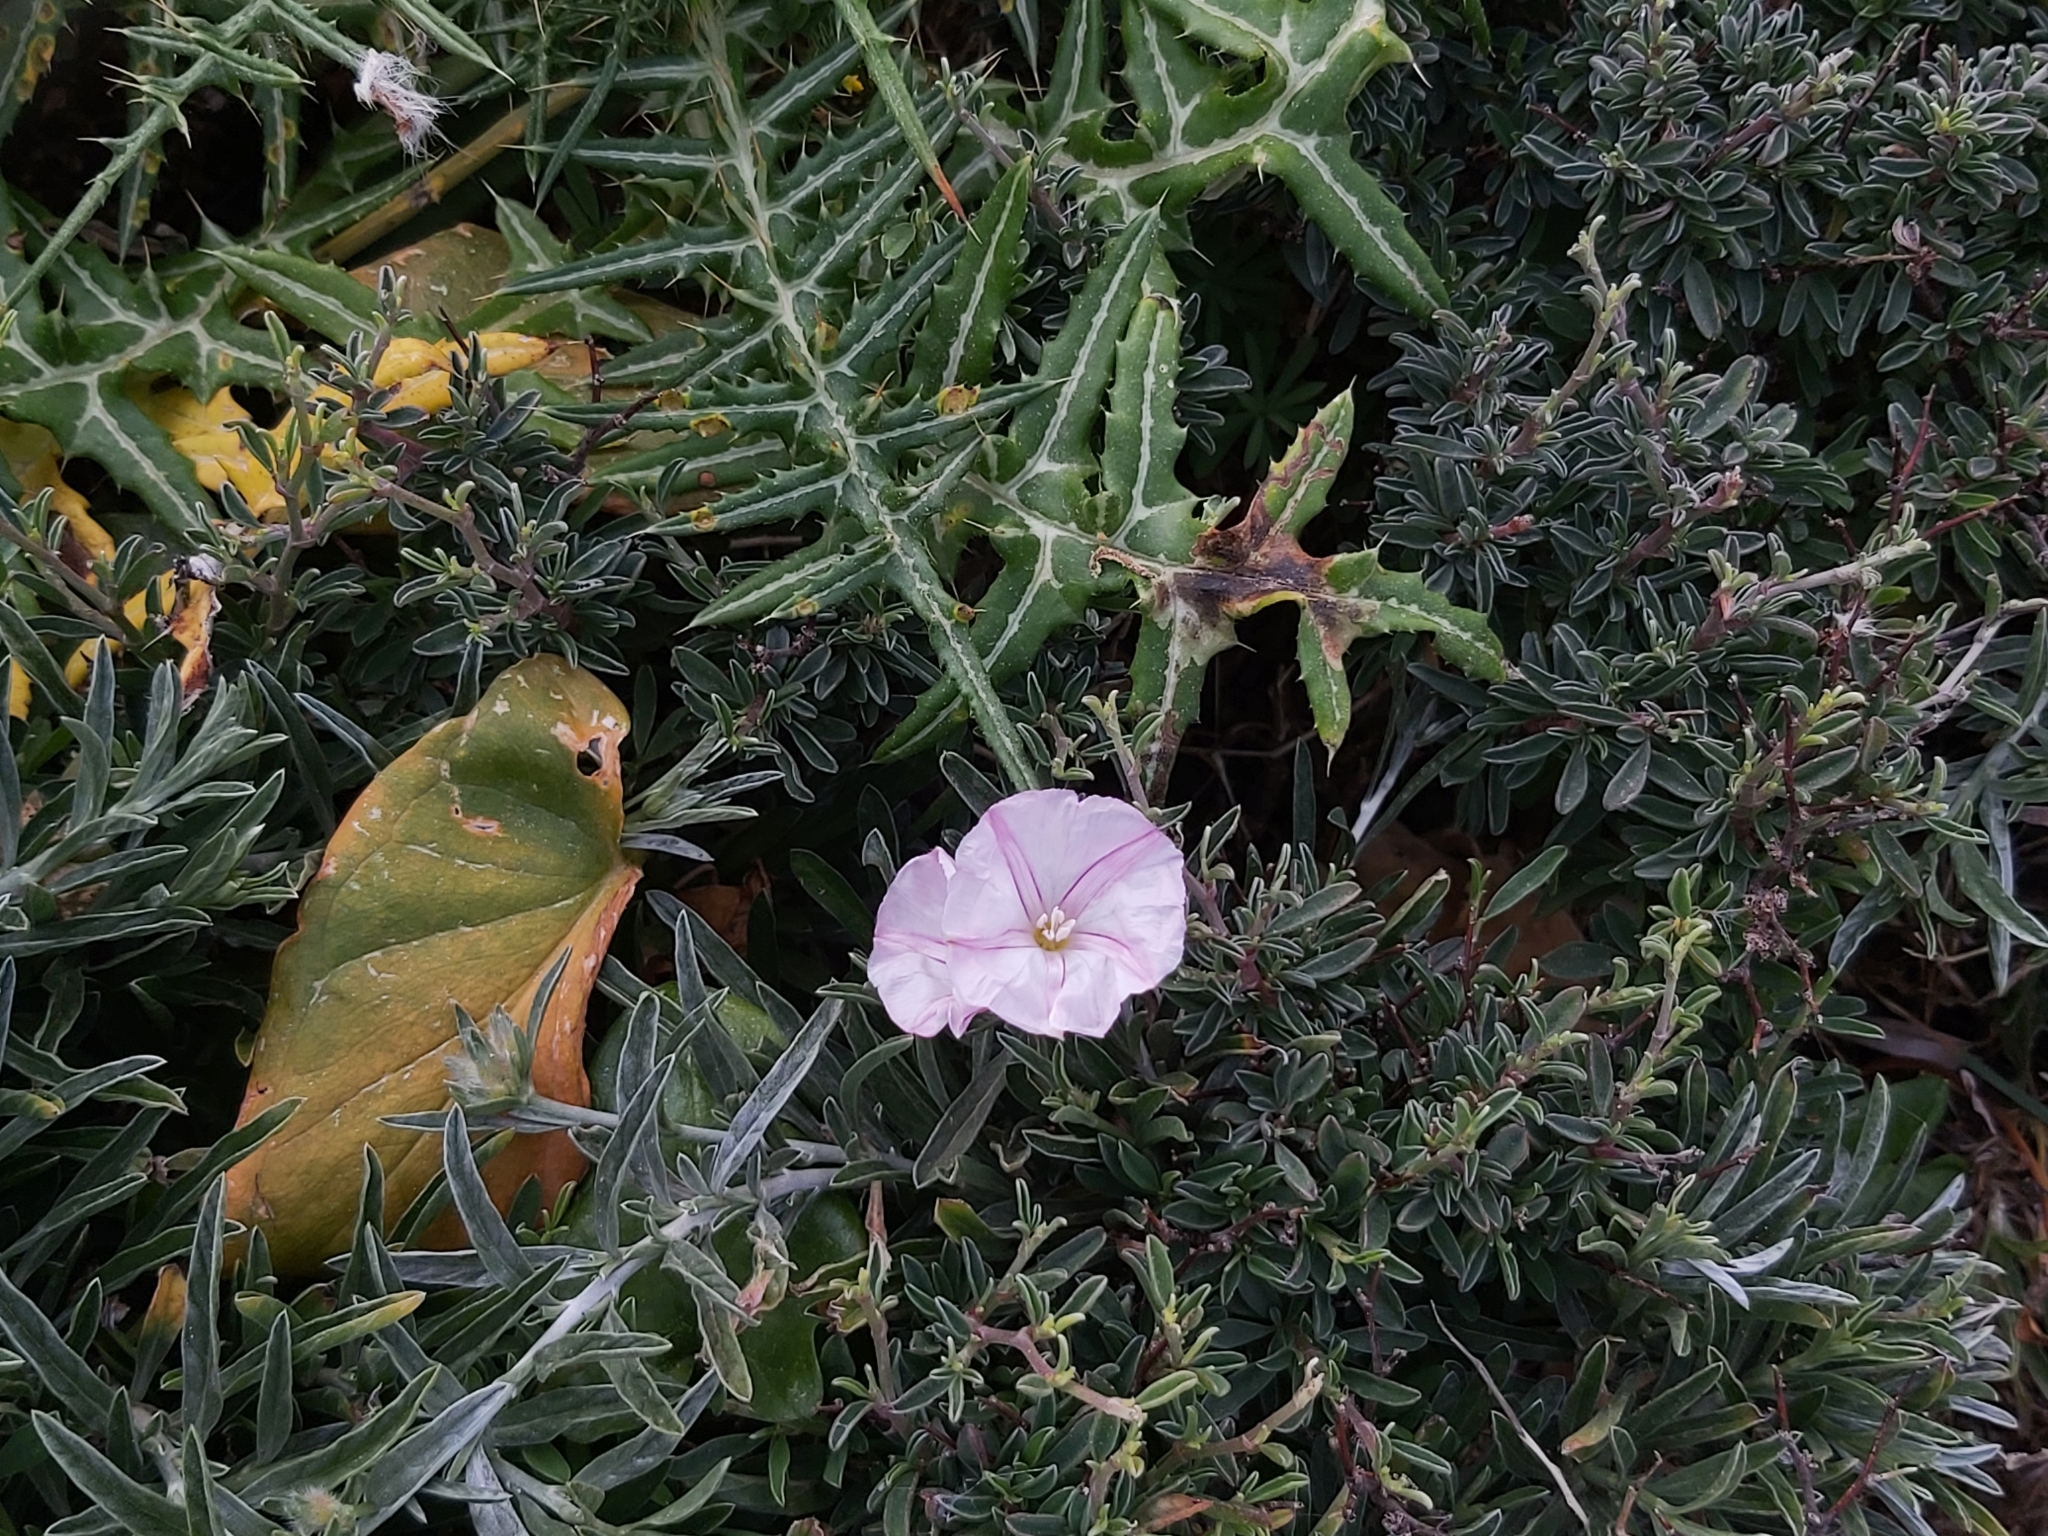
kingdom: Plantae
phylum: Tracheophyta
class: Magnoliopsida
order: Solanales
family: Convolvulaceae
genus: Convolvulus
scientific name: Convolvulus oleifolius
